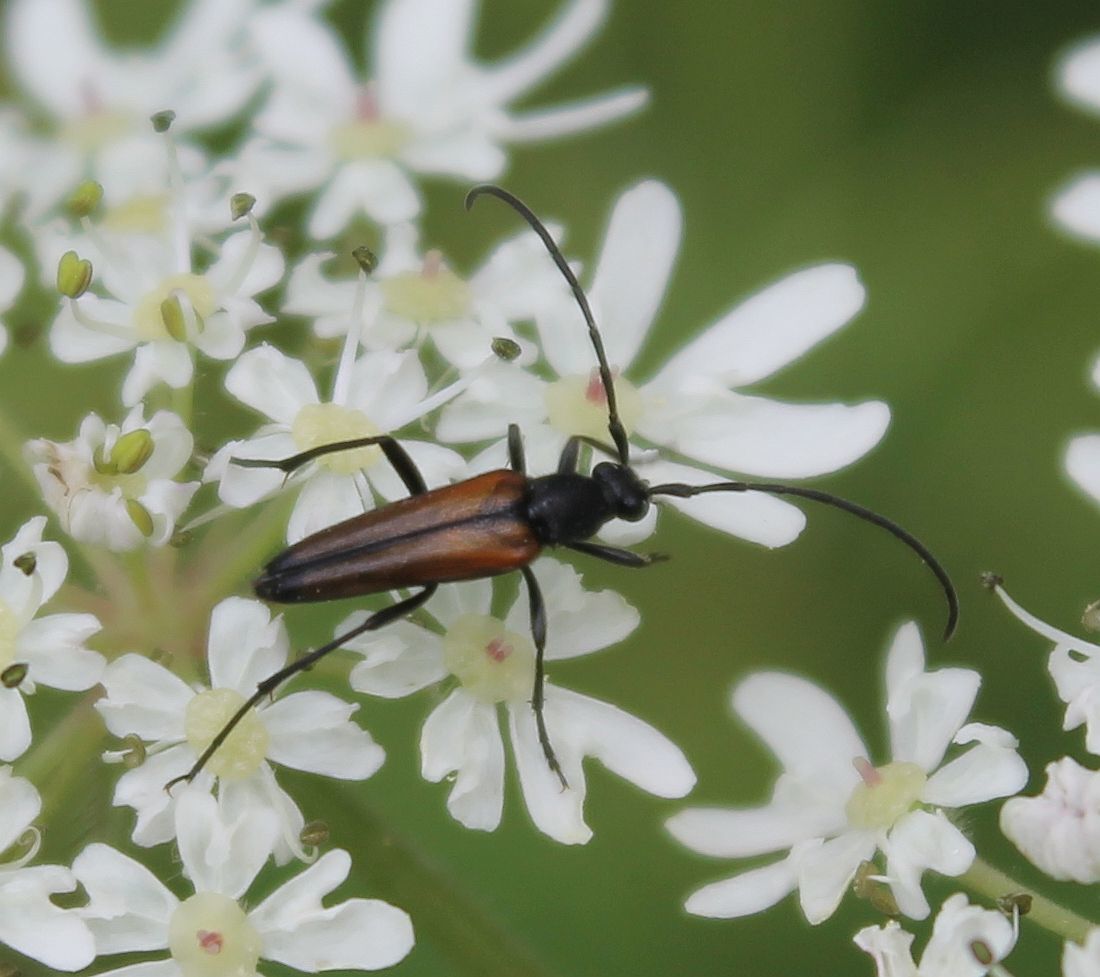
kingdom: Animalia
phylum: Arthropoda
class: Insecta
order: Coleoptera
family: Cerambycidae
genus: Stenurella
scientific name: Stenurella melanura
